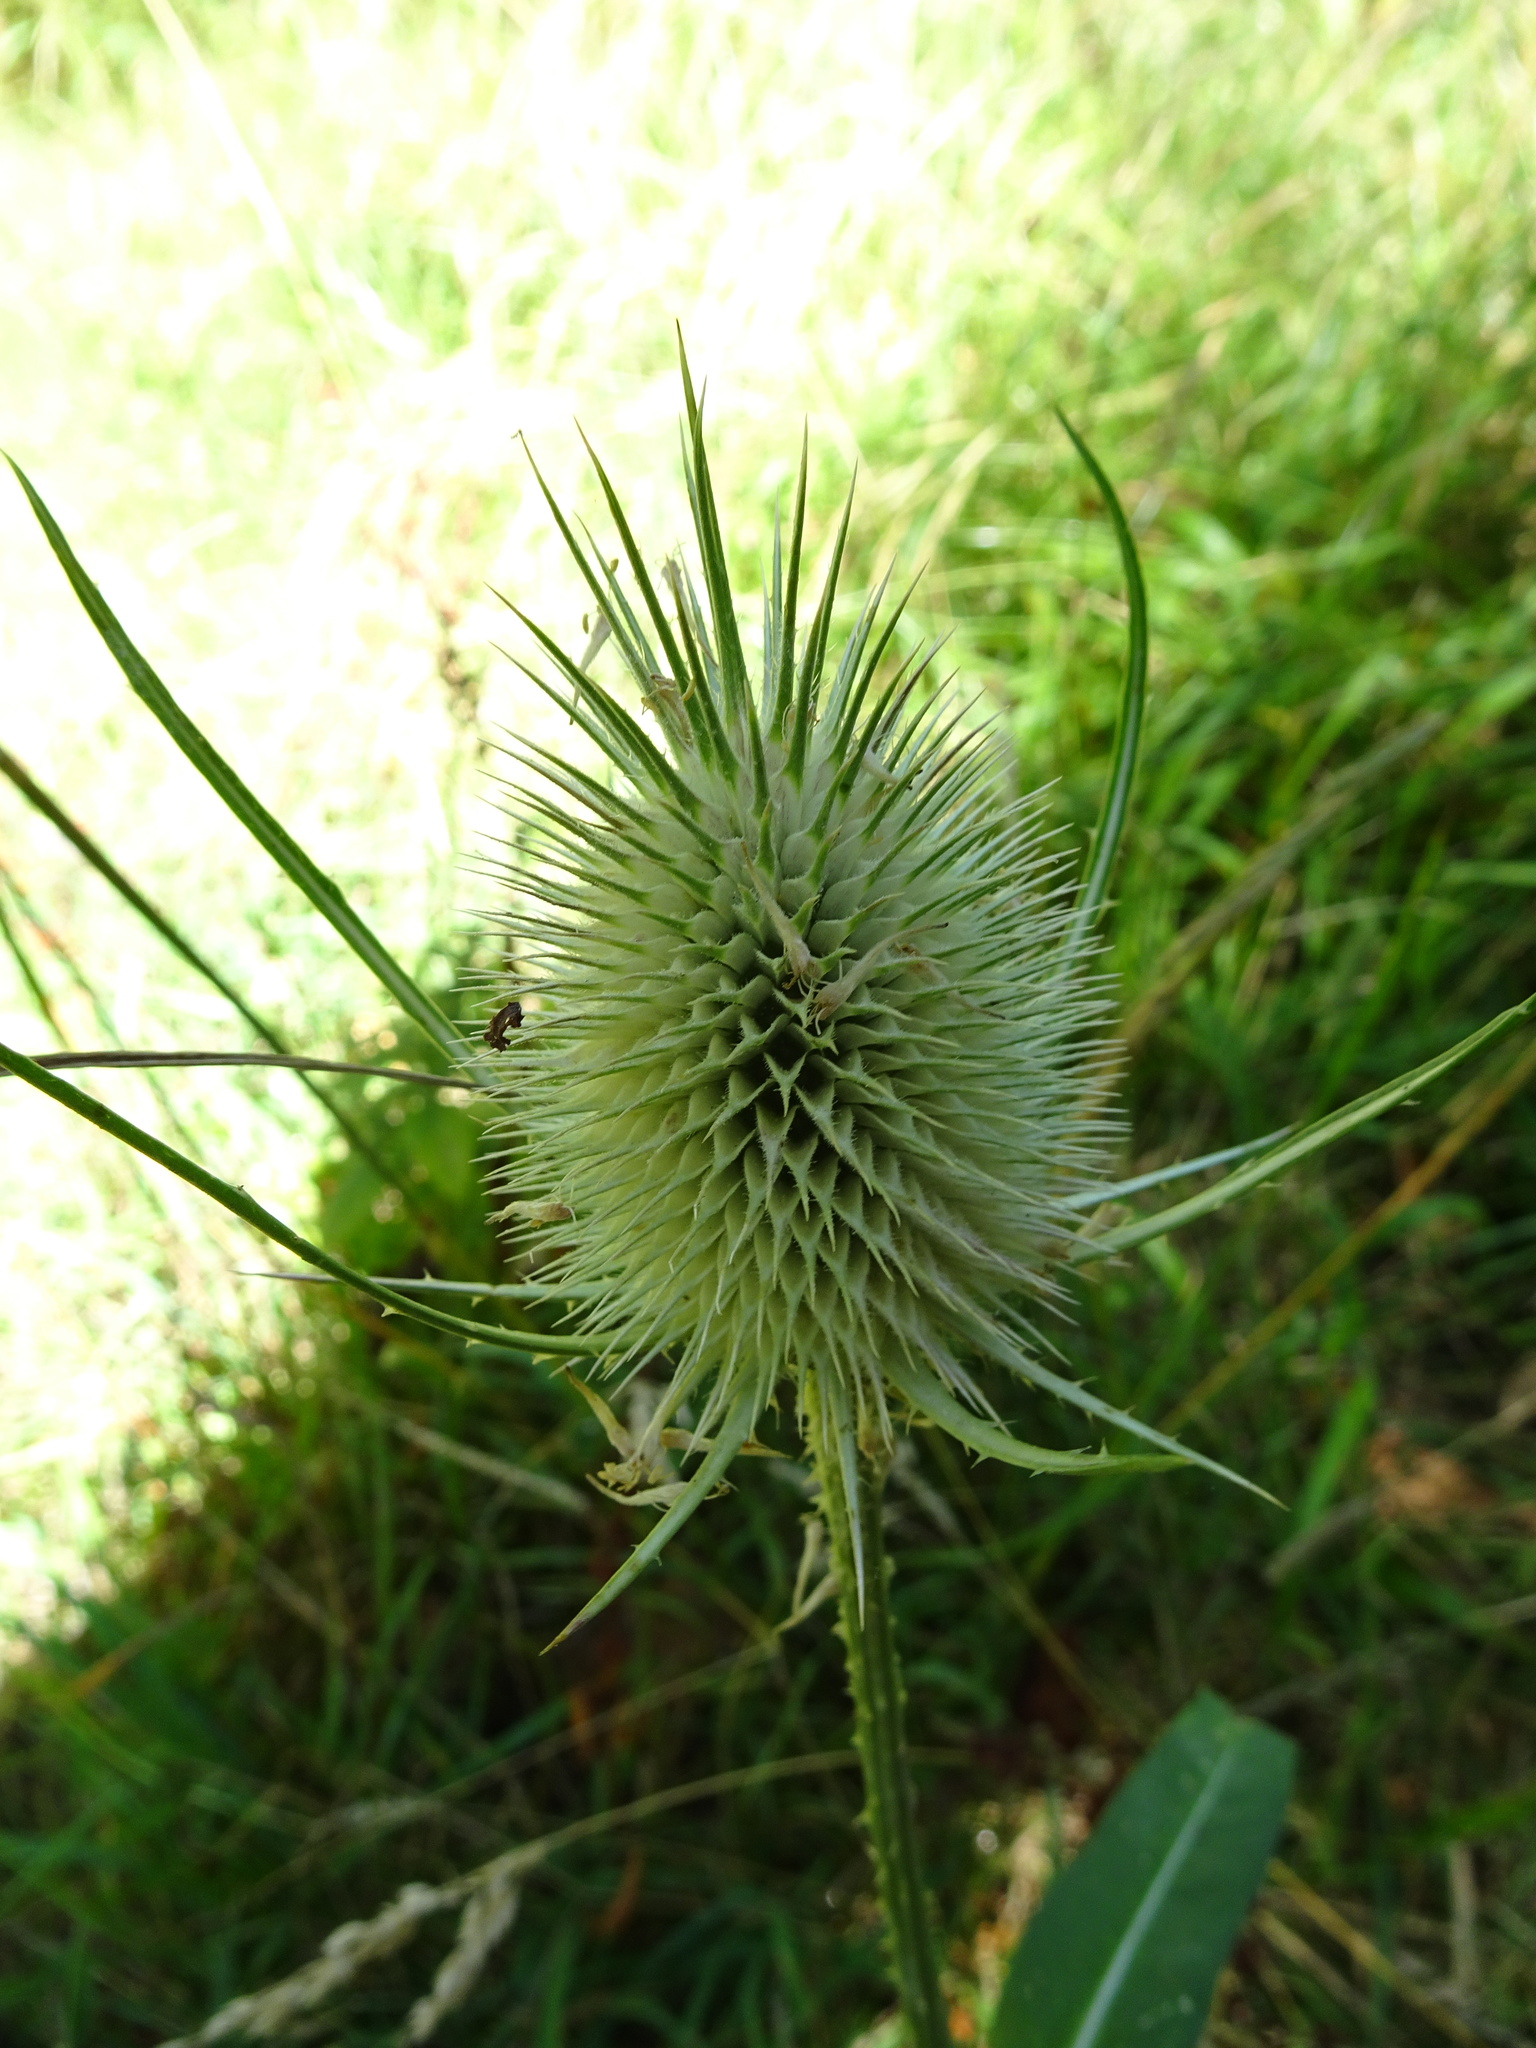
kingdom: Plantae
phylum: Tracheophyta
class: Magnoliopsida
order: Dipsacales
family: Caprifoliaceae
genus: Dipsacus
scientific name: Dipsacus fullonum
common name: Teasel
